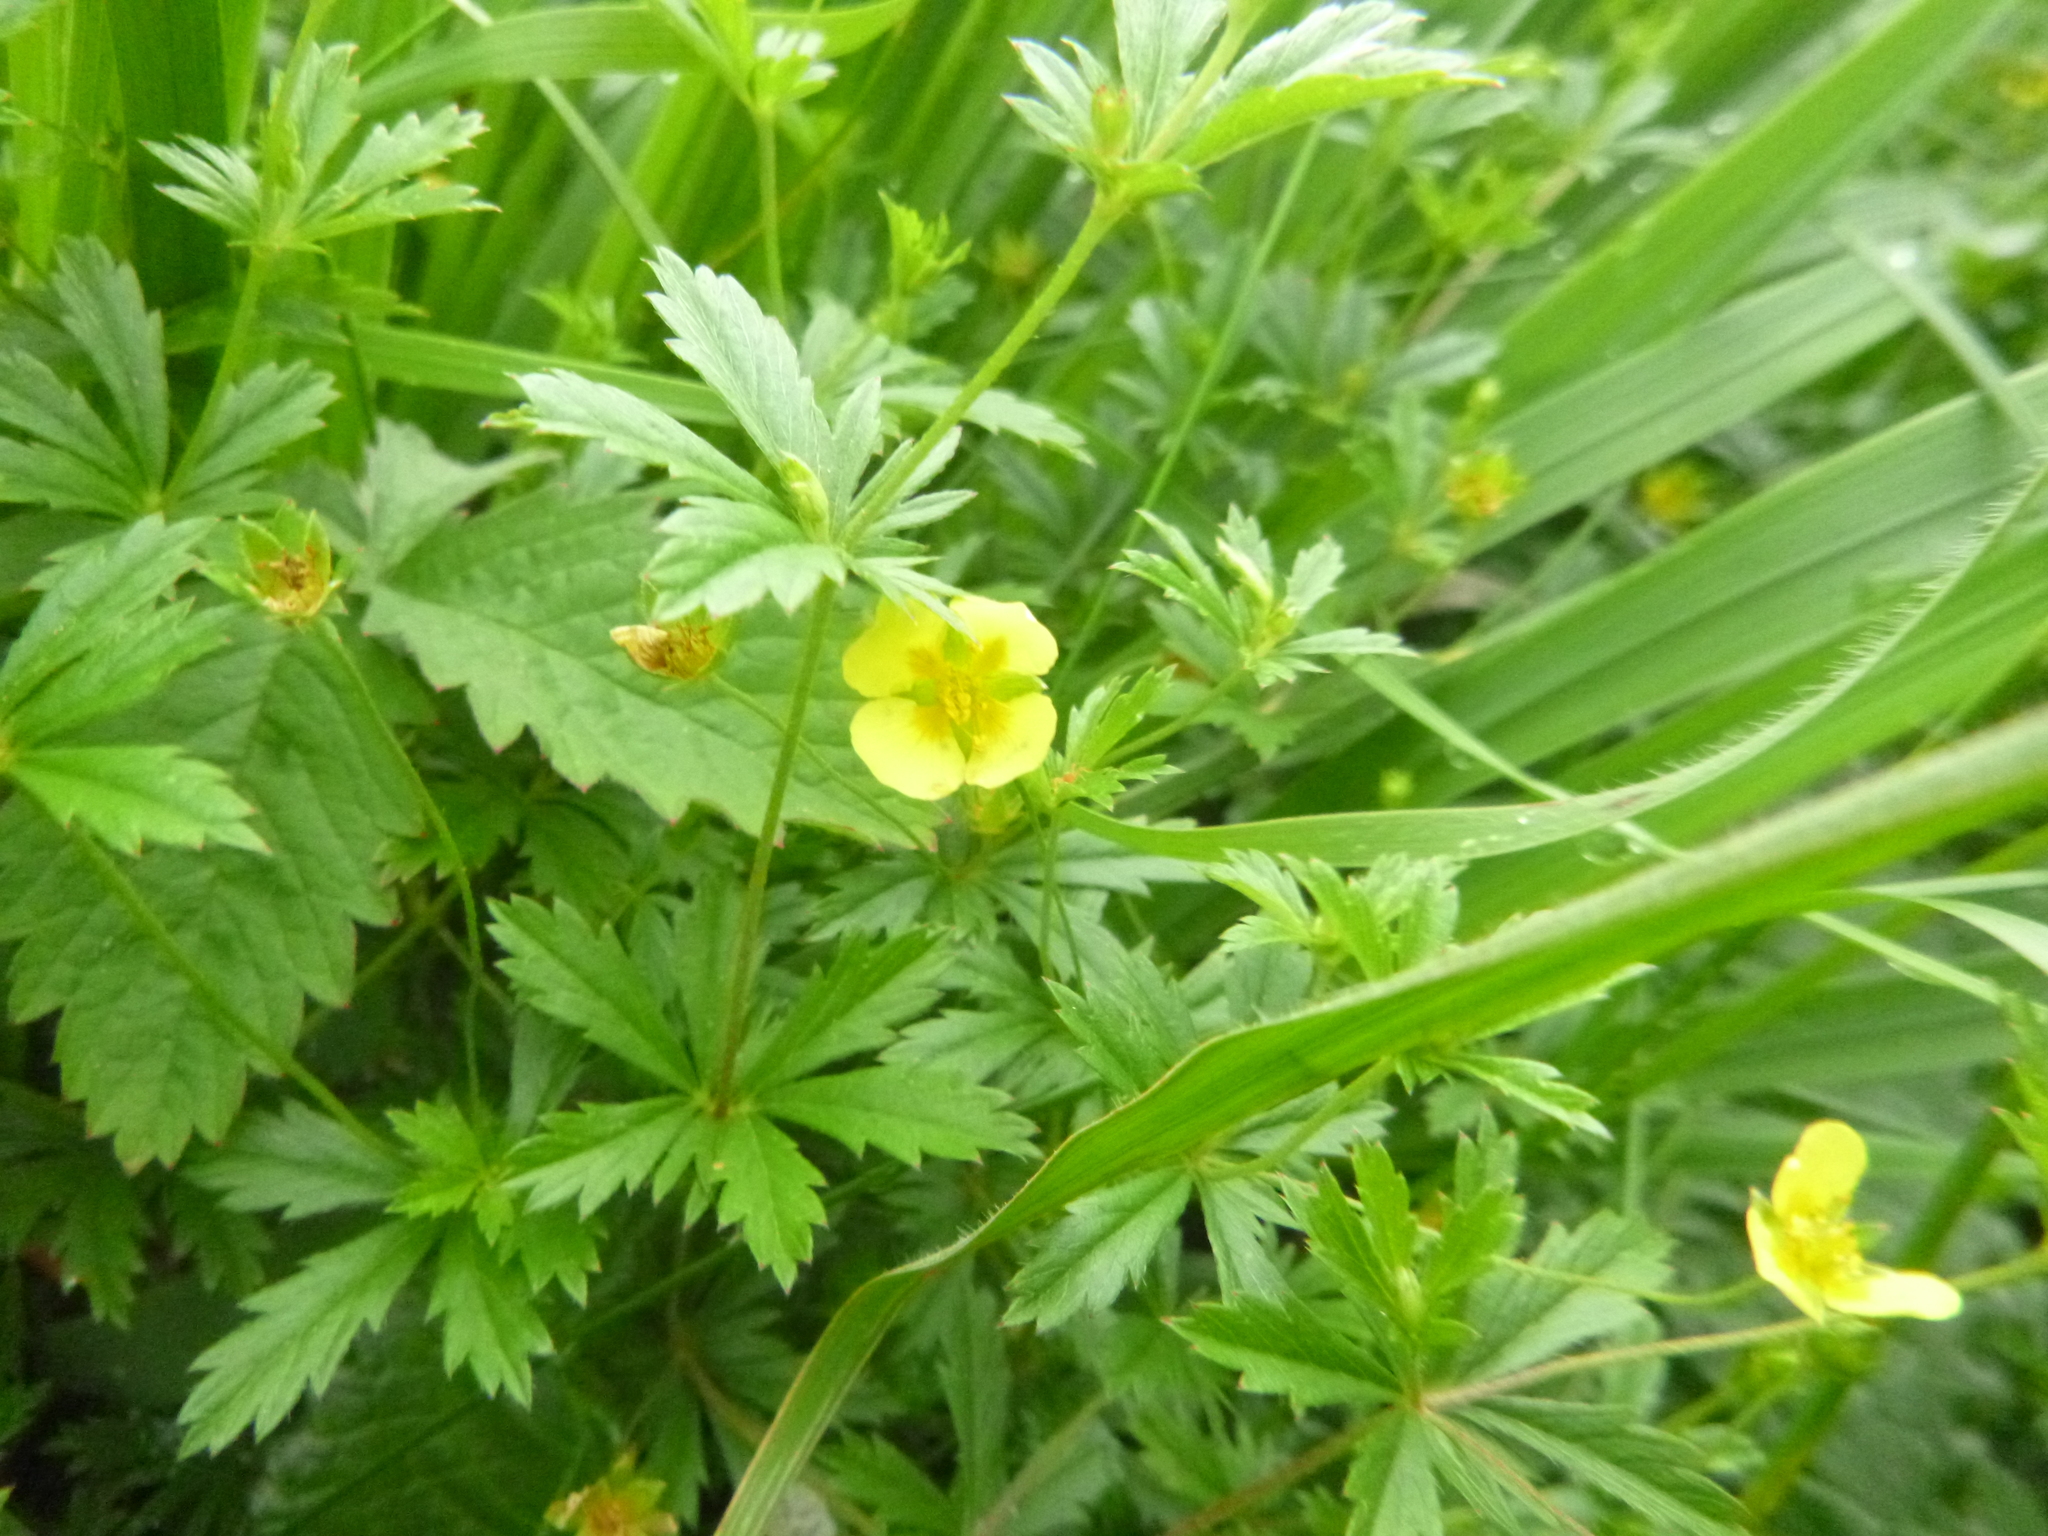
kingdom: Plantae
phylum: Tracheophyta
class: Magnoliopsida
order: Rosales
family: Rosaceae
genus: Potentilla
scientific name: Potentilla erecta
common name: Tormentil
